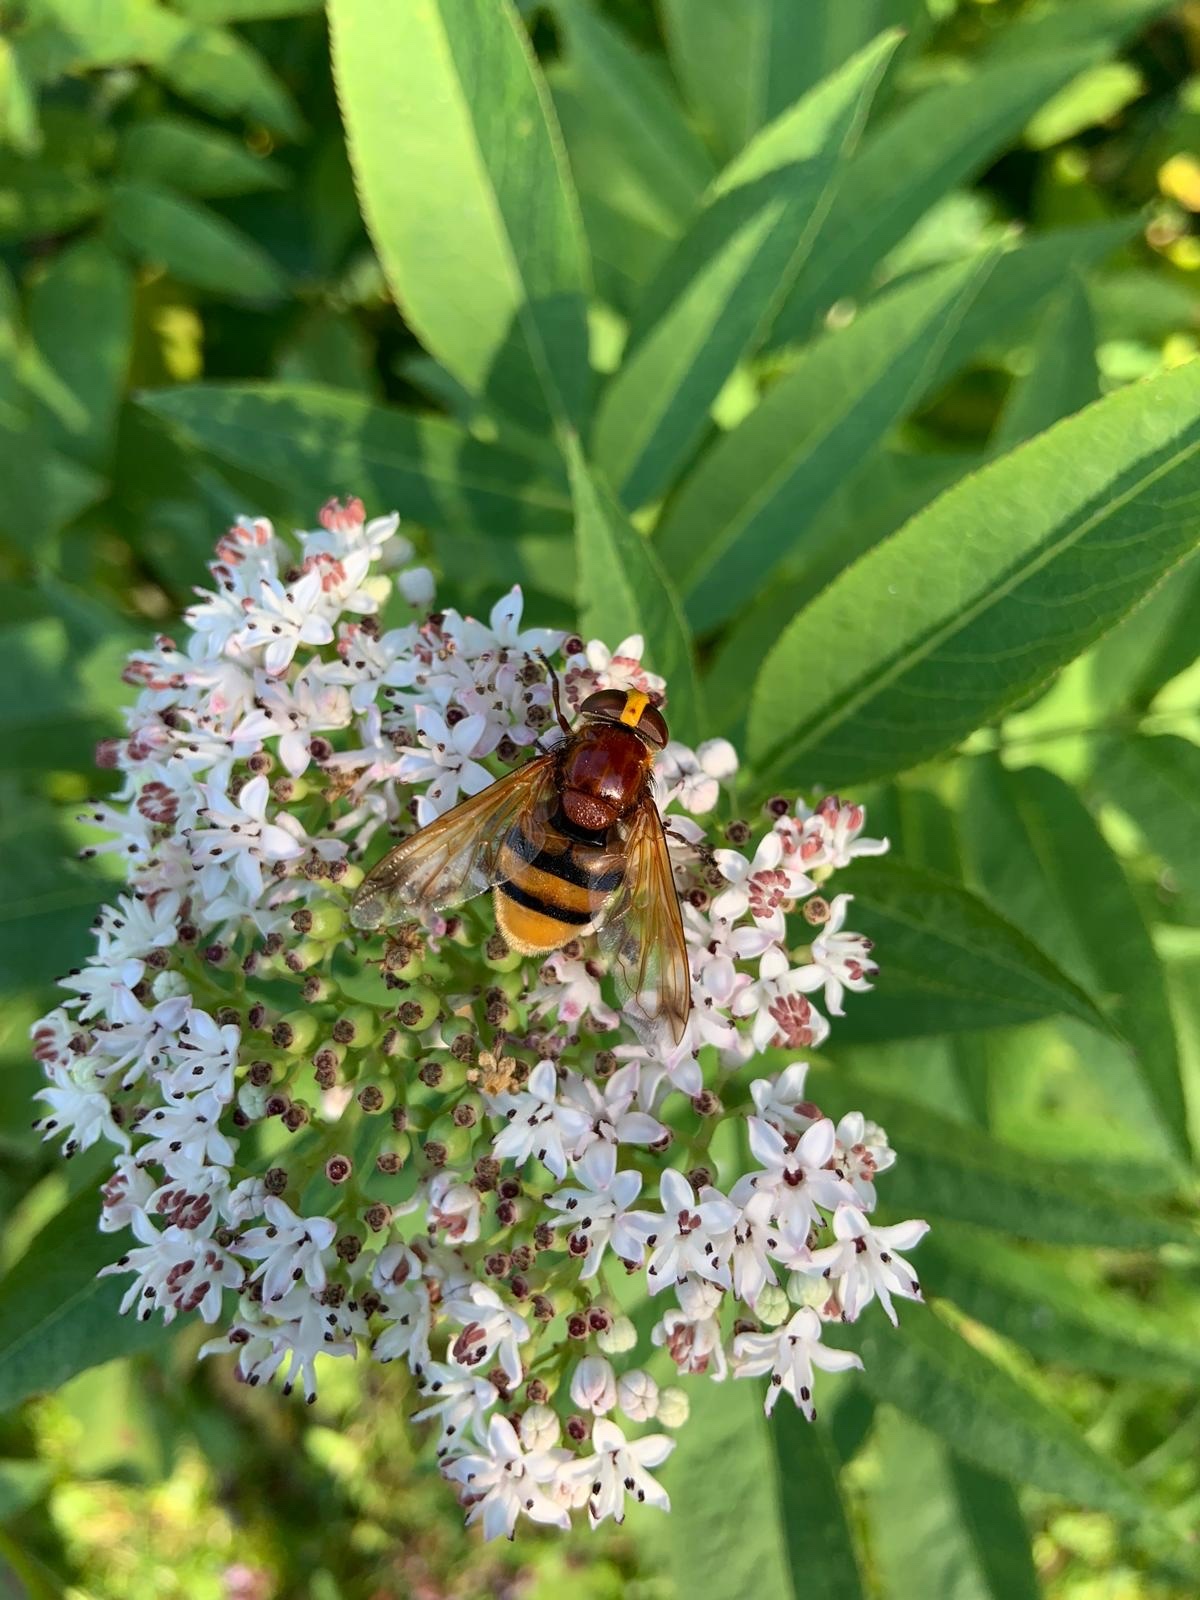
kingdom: Animalia
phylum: Arthropoda
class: Insecta
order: Diptera
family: Syrphidae
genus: Volucella
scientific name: Volucella zonaria
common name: Hornet hoverfly
